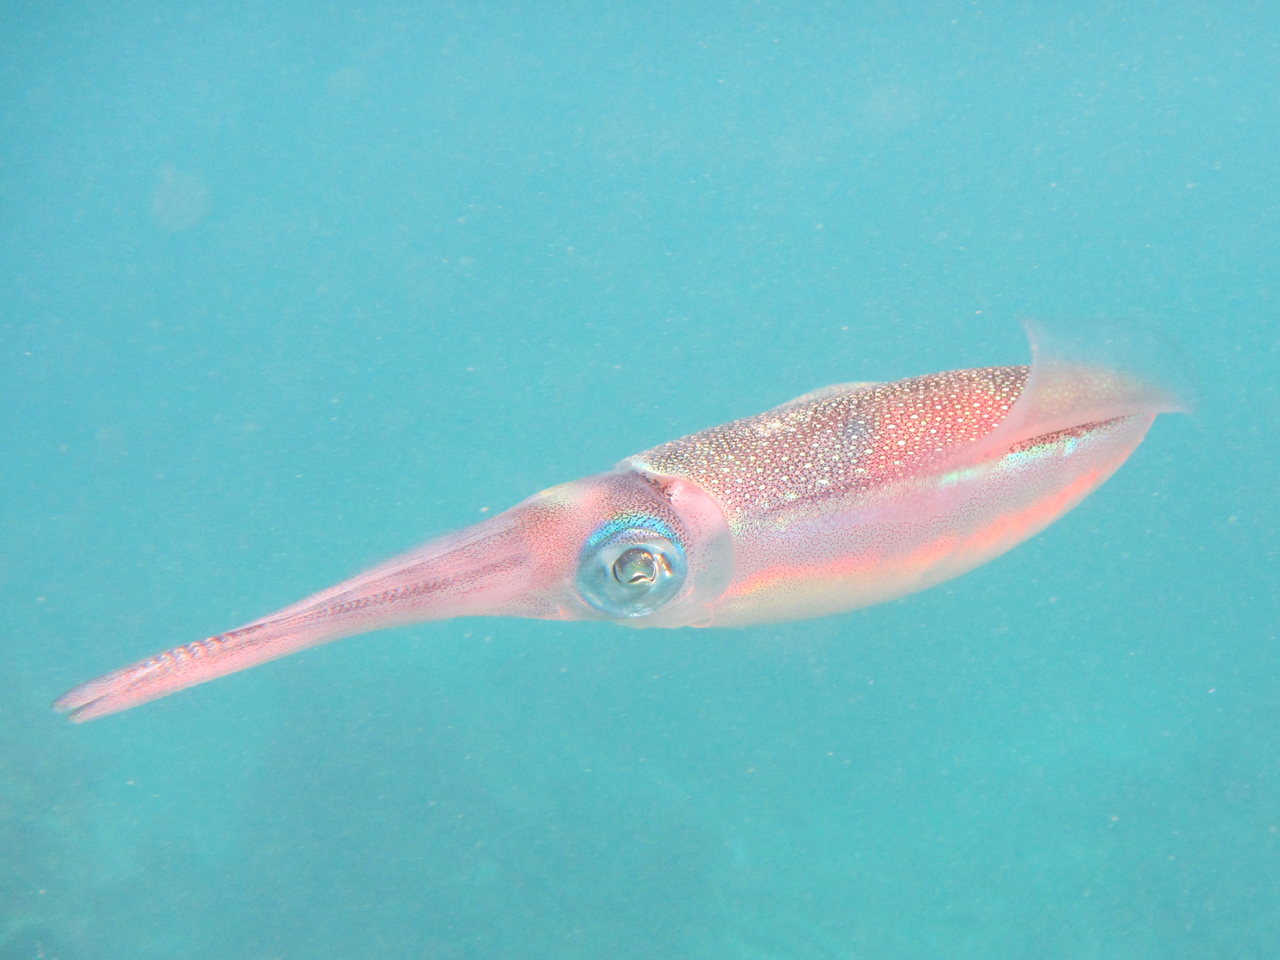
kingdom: Animalia
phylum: Mollusca
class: Cephalopoda
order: Myopsida
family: Loliginidae
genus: Sepioteuthis
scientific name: Sepioteuthis lessoniana
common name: Bigfin reef squid
